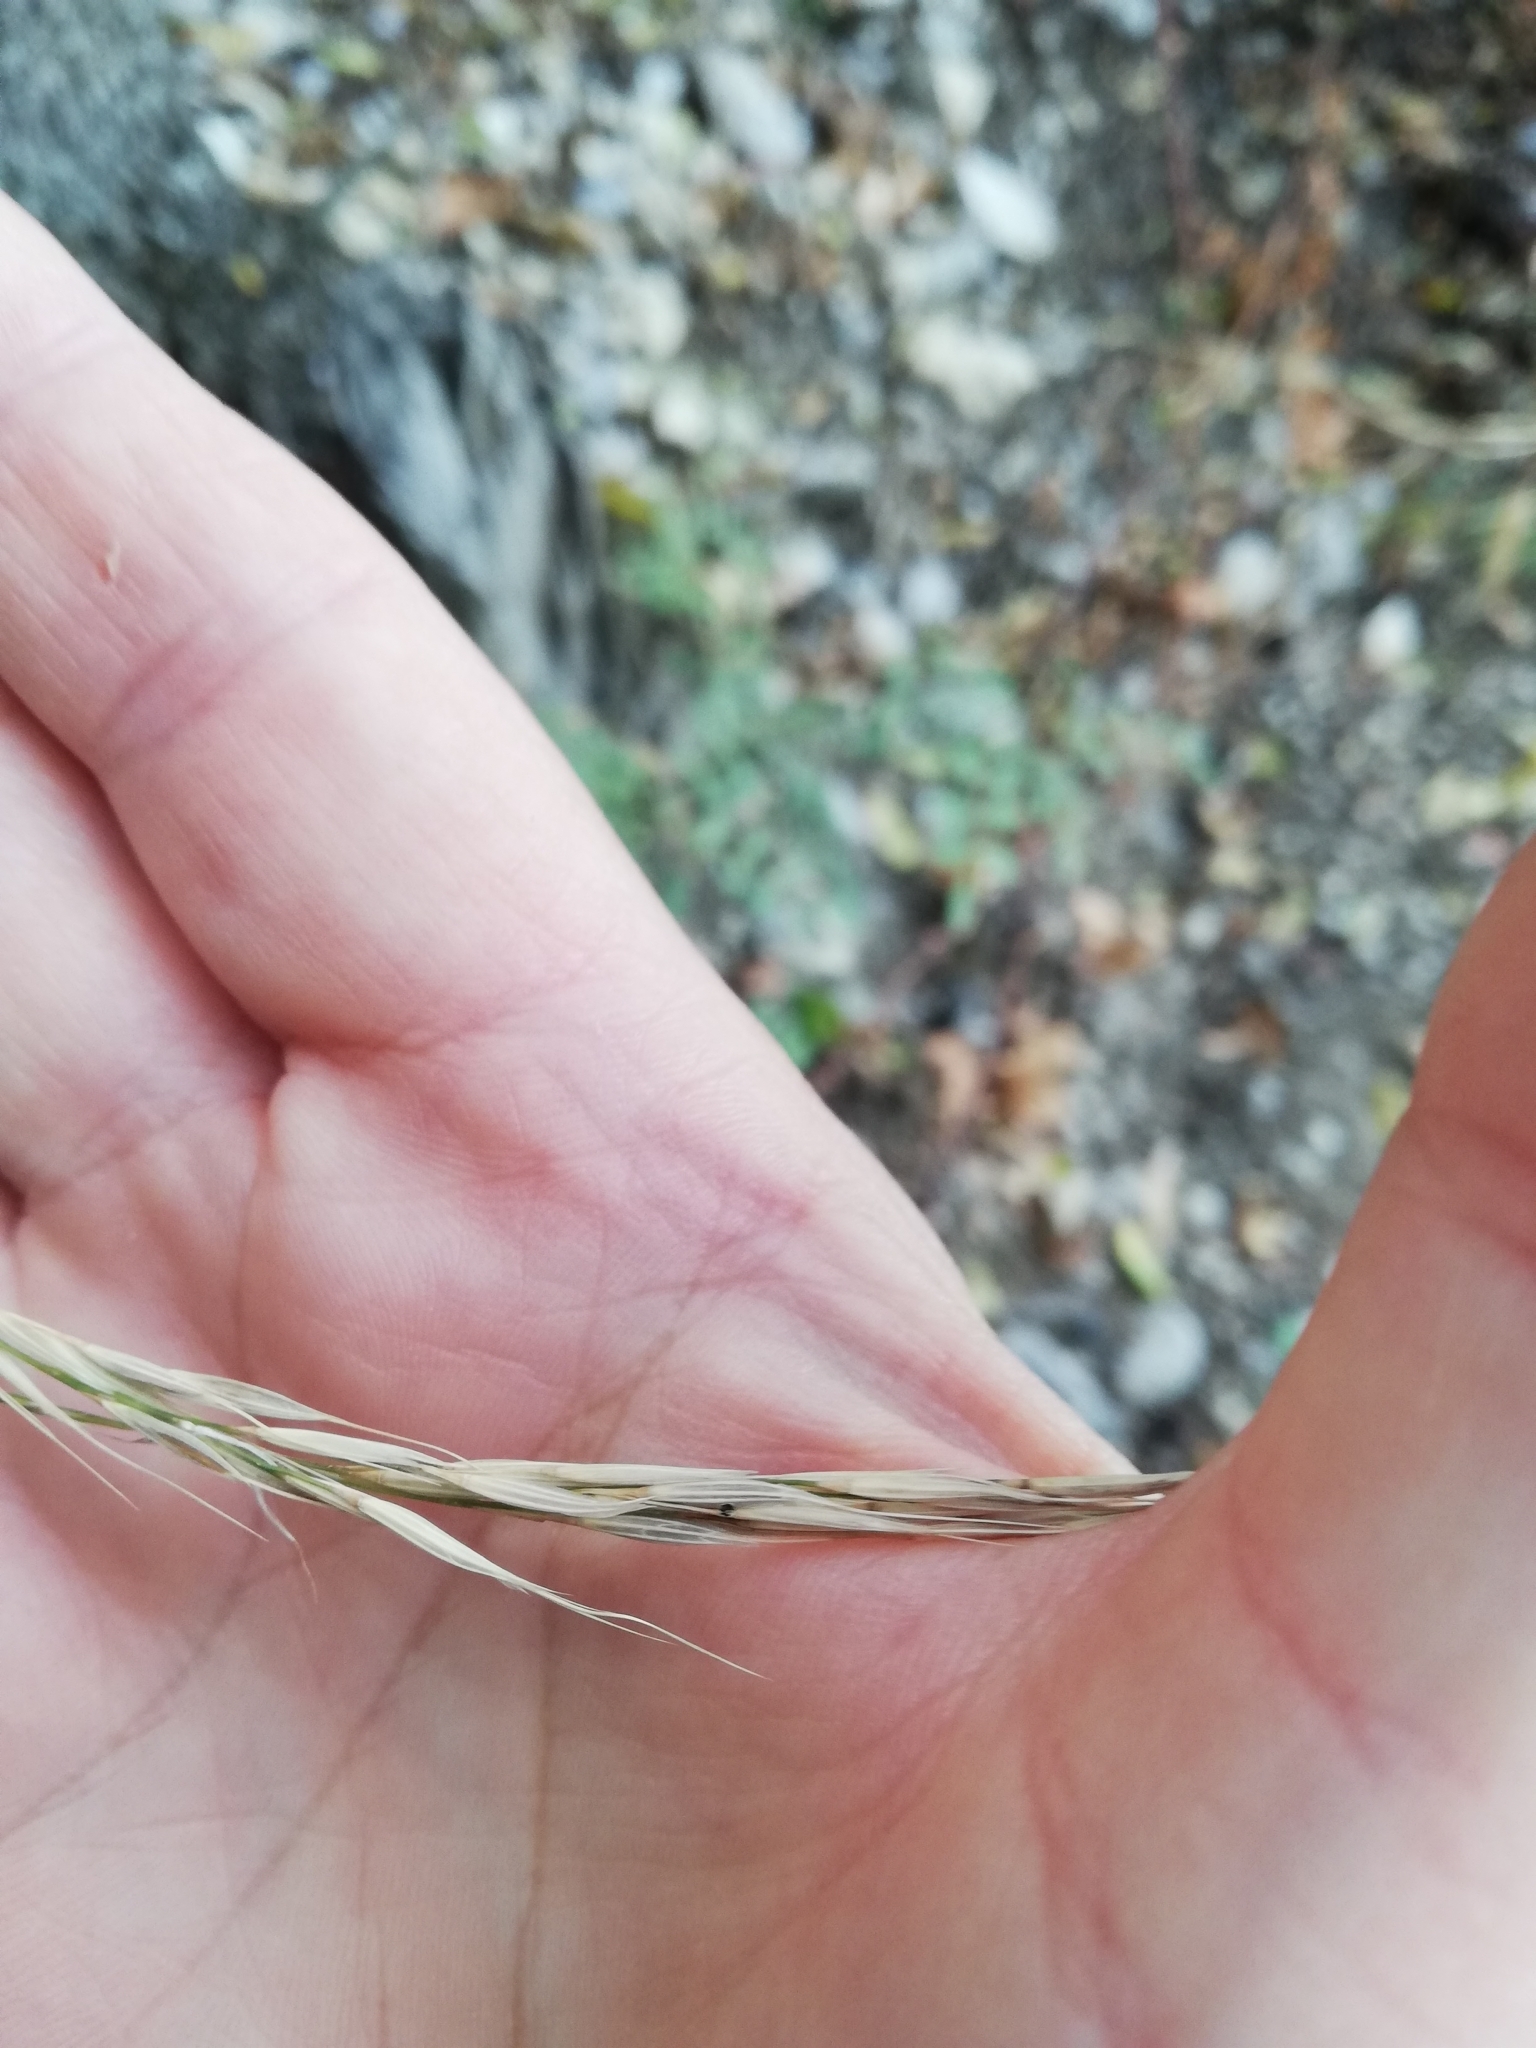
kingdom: Plantae
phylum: Tracheophyta
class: Liliopsida
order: Poales
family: Poaceae
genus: Brachypodium
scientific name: Brachypodium sylvaticum
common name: False-brome
